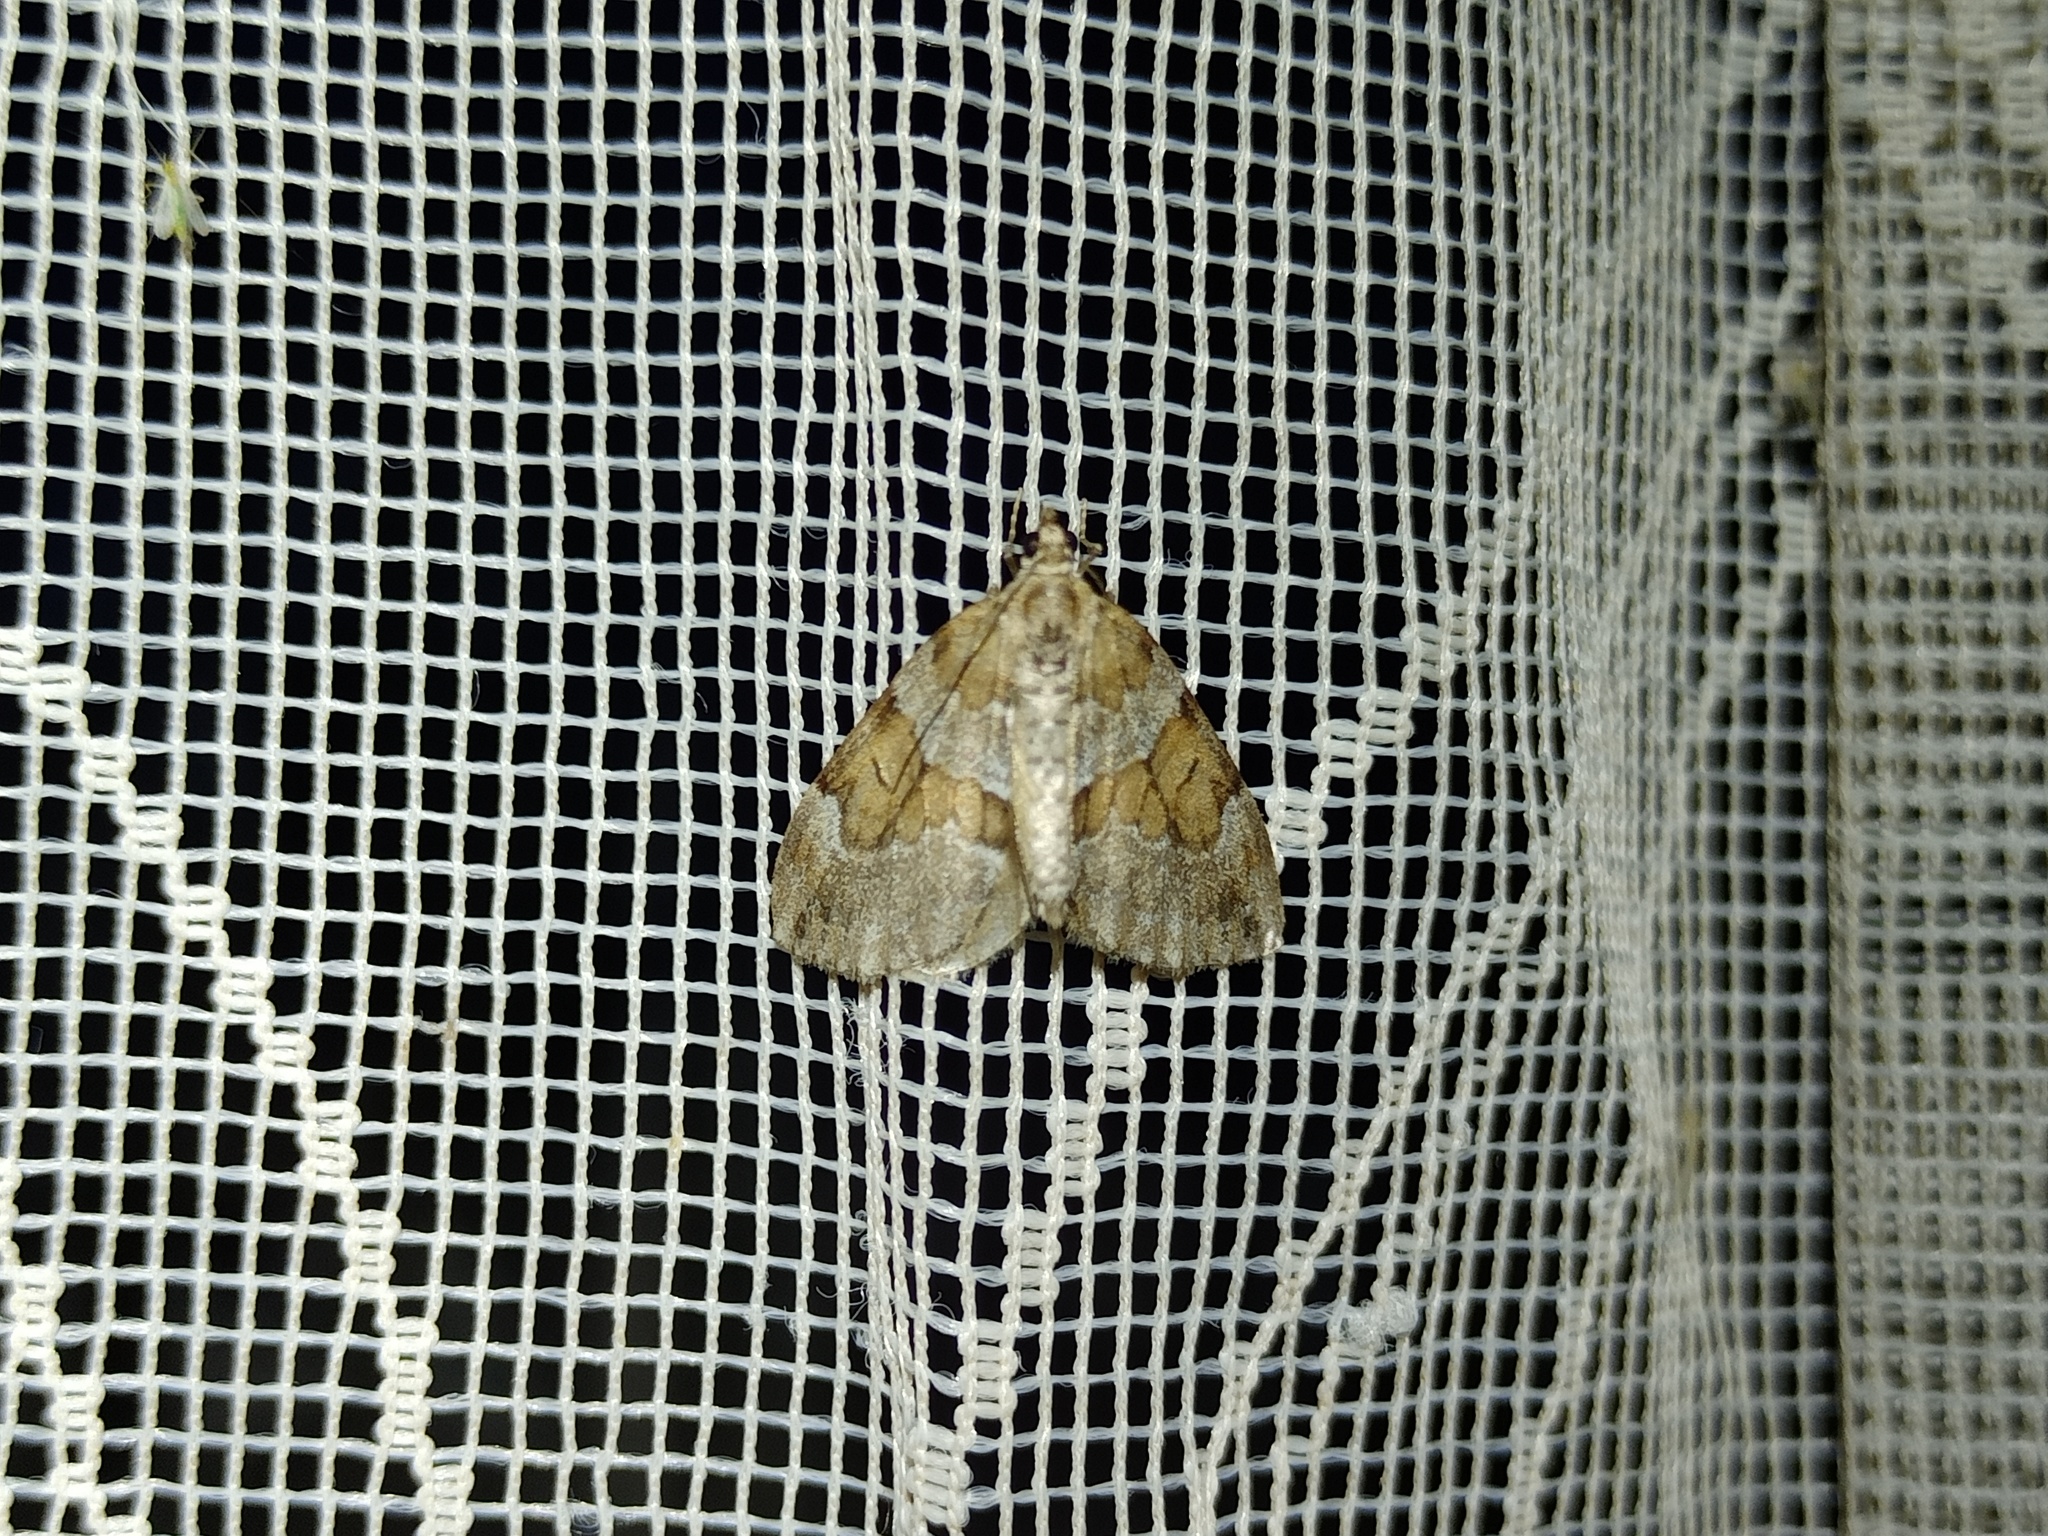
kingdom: Animalia
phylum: Arthropoda
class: Insecta
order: Lepidoptera
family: Geometridae
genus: Thera
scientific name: Thera obeliscata
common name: Grey pine carpet
